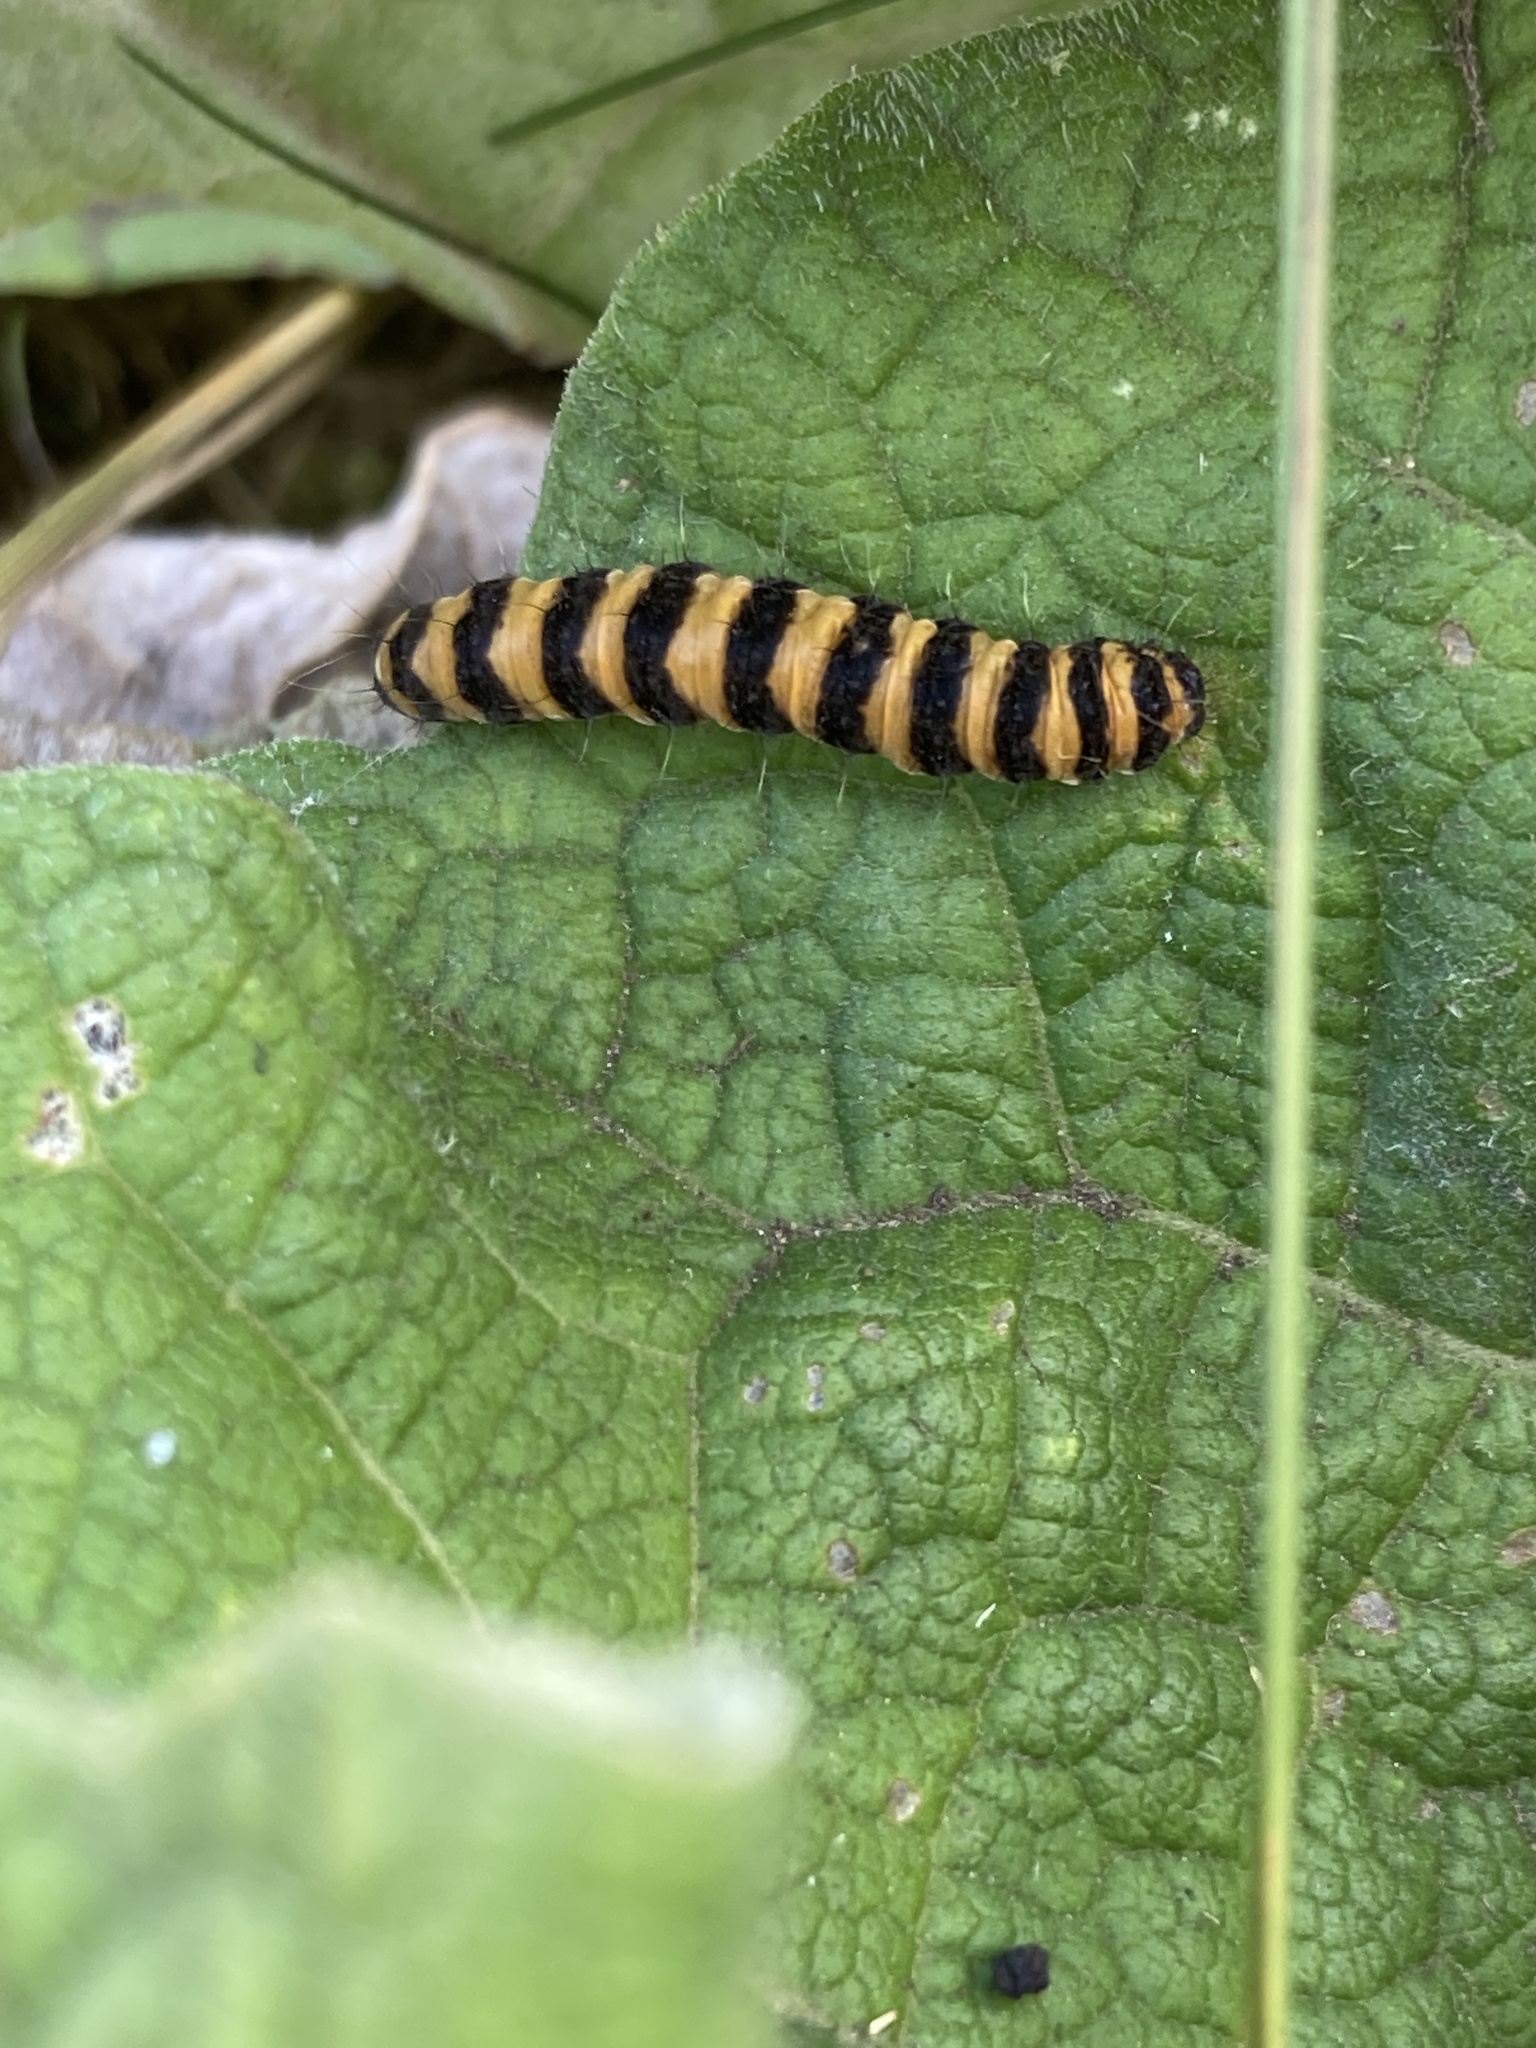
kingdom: Animalia
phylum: Arthropoda
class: Insecta
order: Lepidoptera
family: Erebidae
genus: Tyria
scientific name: Tyria jacobaeae
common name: Cinnabar
